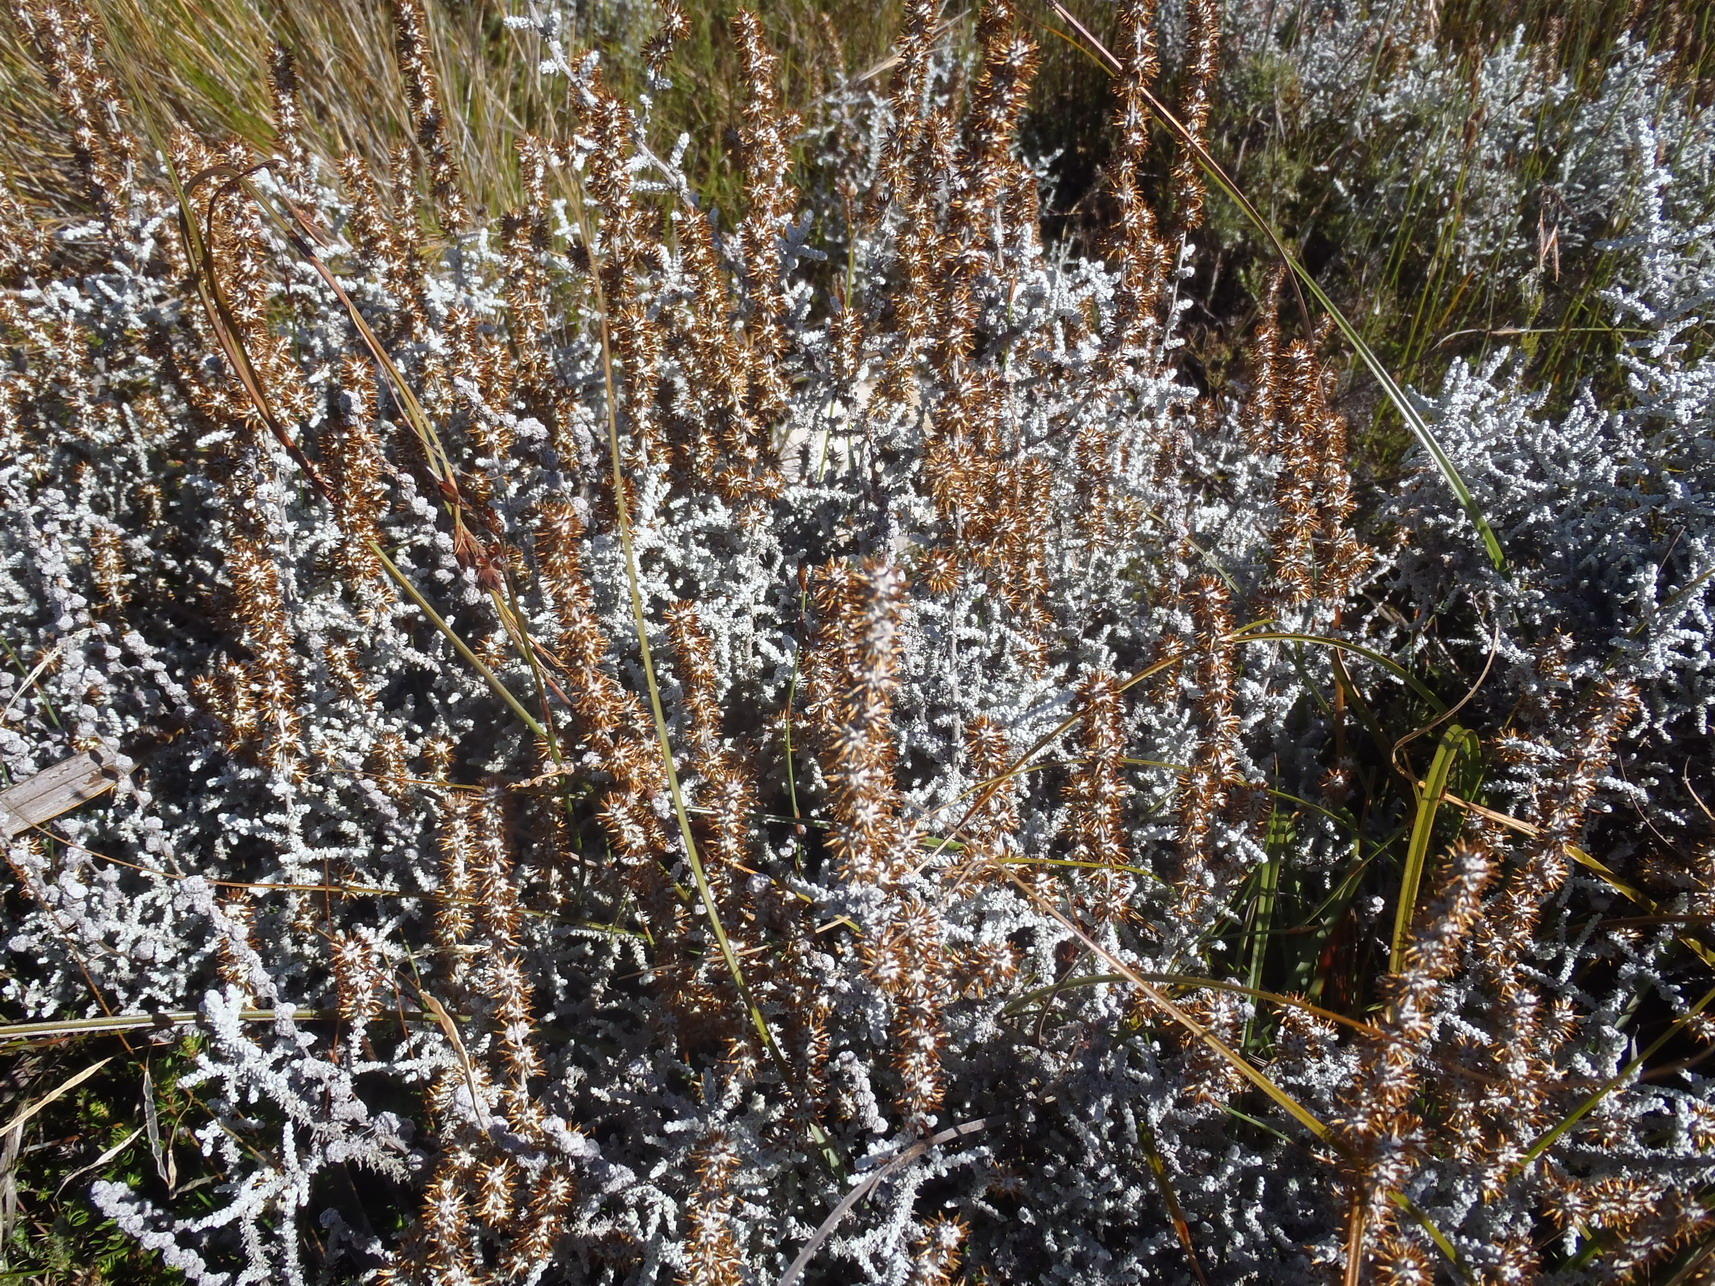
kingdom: Plantae
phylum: Tracheophyta
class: Magnoliopsida
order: Asterales
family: Asteraceae
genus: Seriphium
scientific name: Seriphium plumosum
